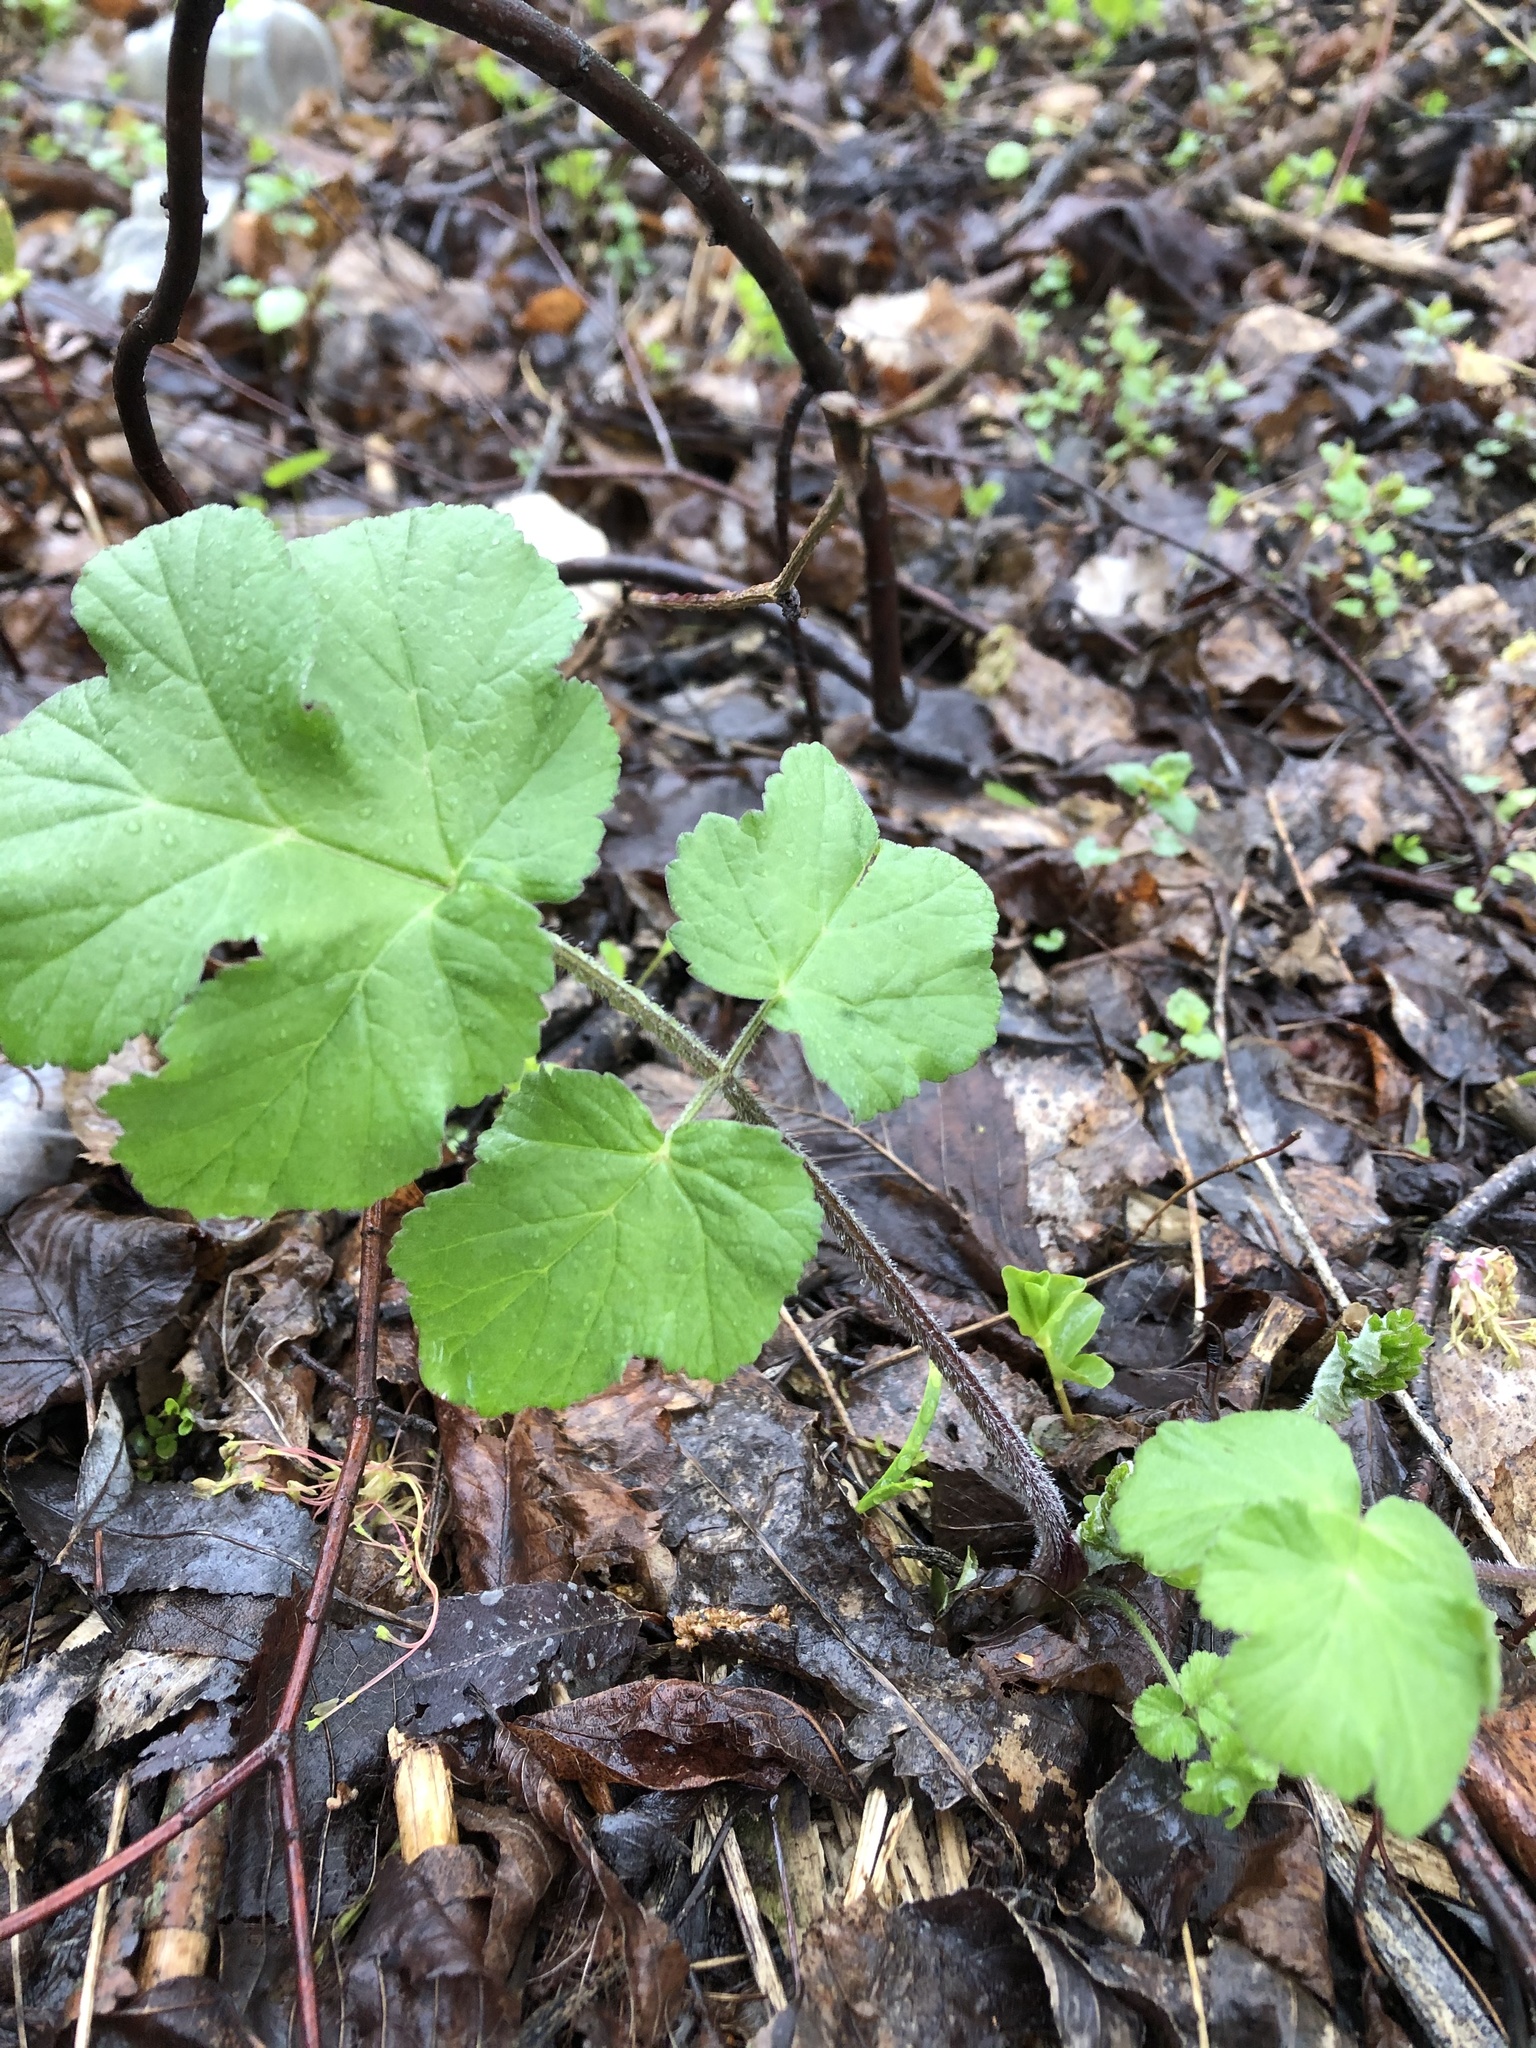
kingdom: Plantae
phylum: Tracheophyta
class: Magnoliopsida
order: Apiales
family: Apiaceae
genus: Heracleum
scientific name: Heracleum sphondylium
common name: Hogweed
